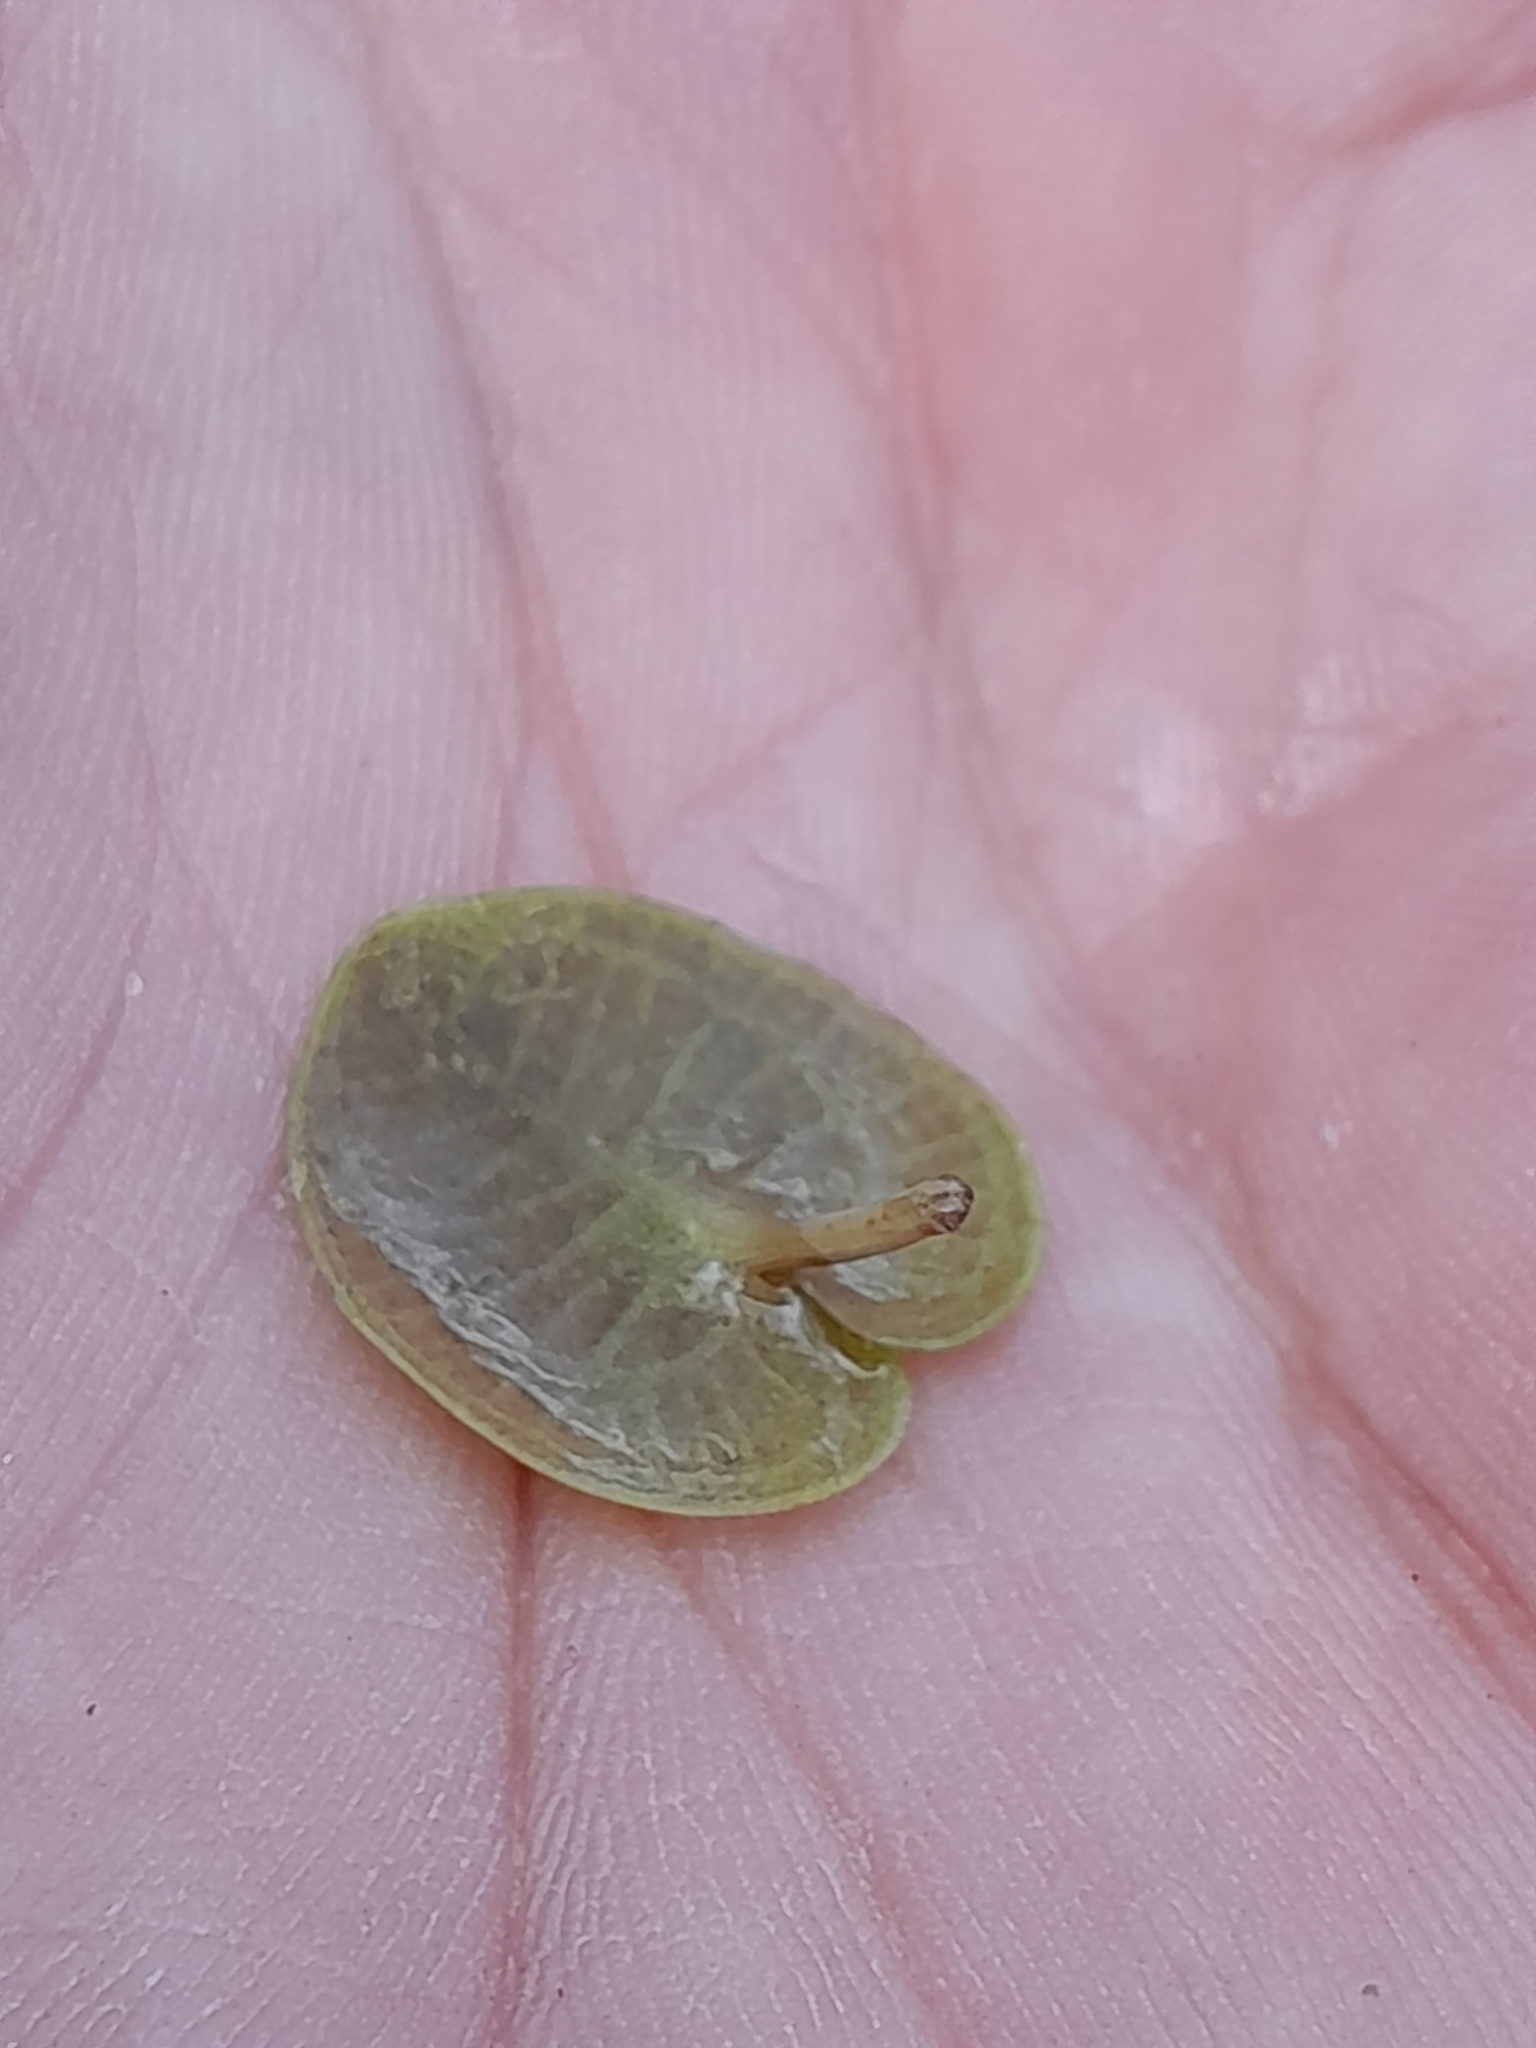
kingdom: Plantae
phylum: Tracheophyta
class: Liliopsida
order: Alismatales
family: Hydrocharitaceae
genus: Hydrocharis
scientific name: Hydrocharis morsus-ranae
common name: Frogbit
